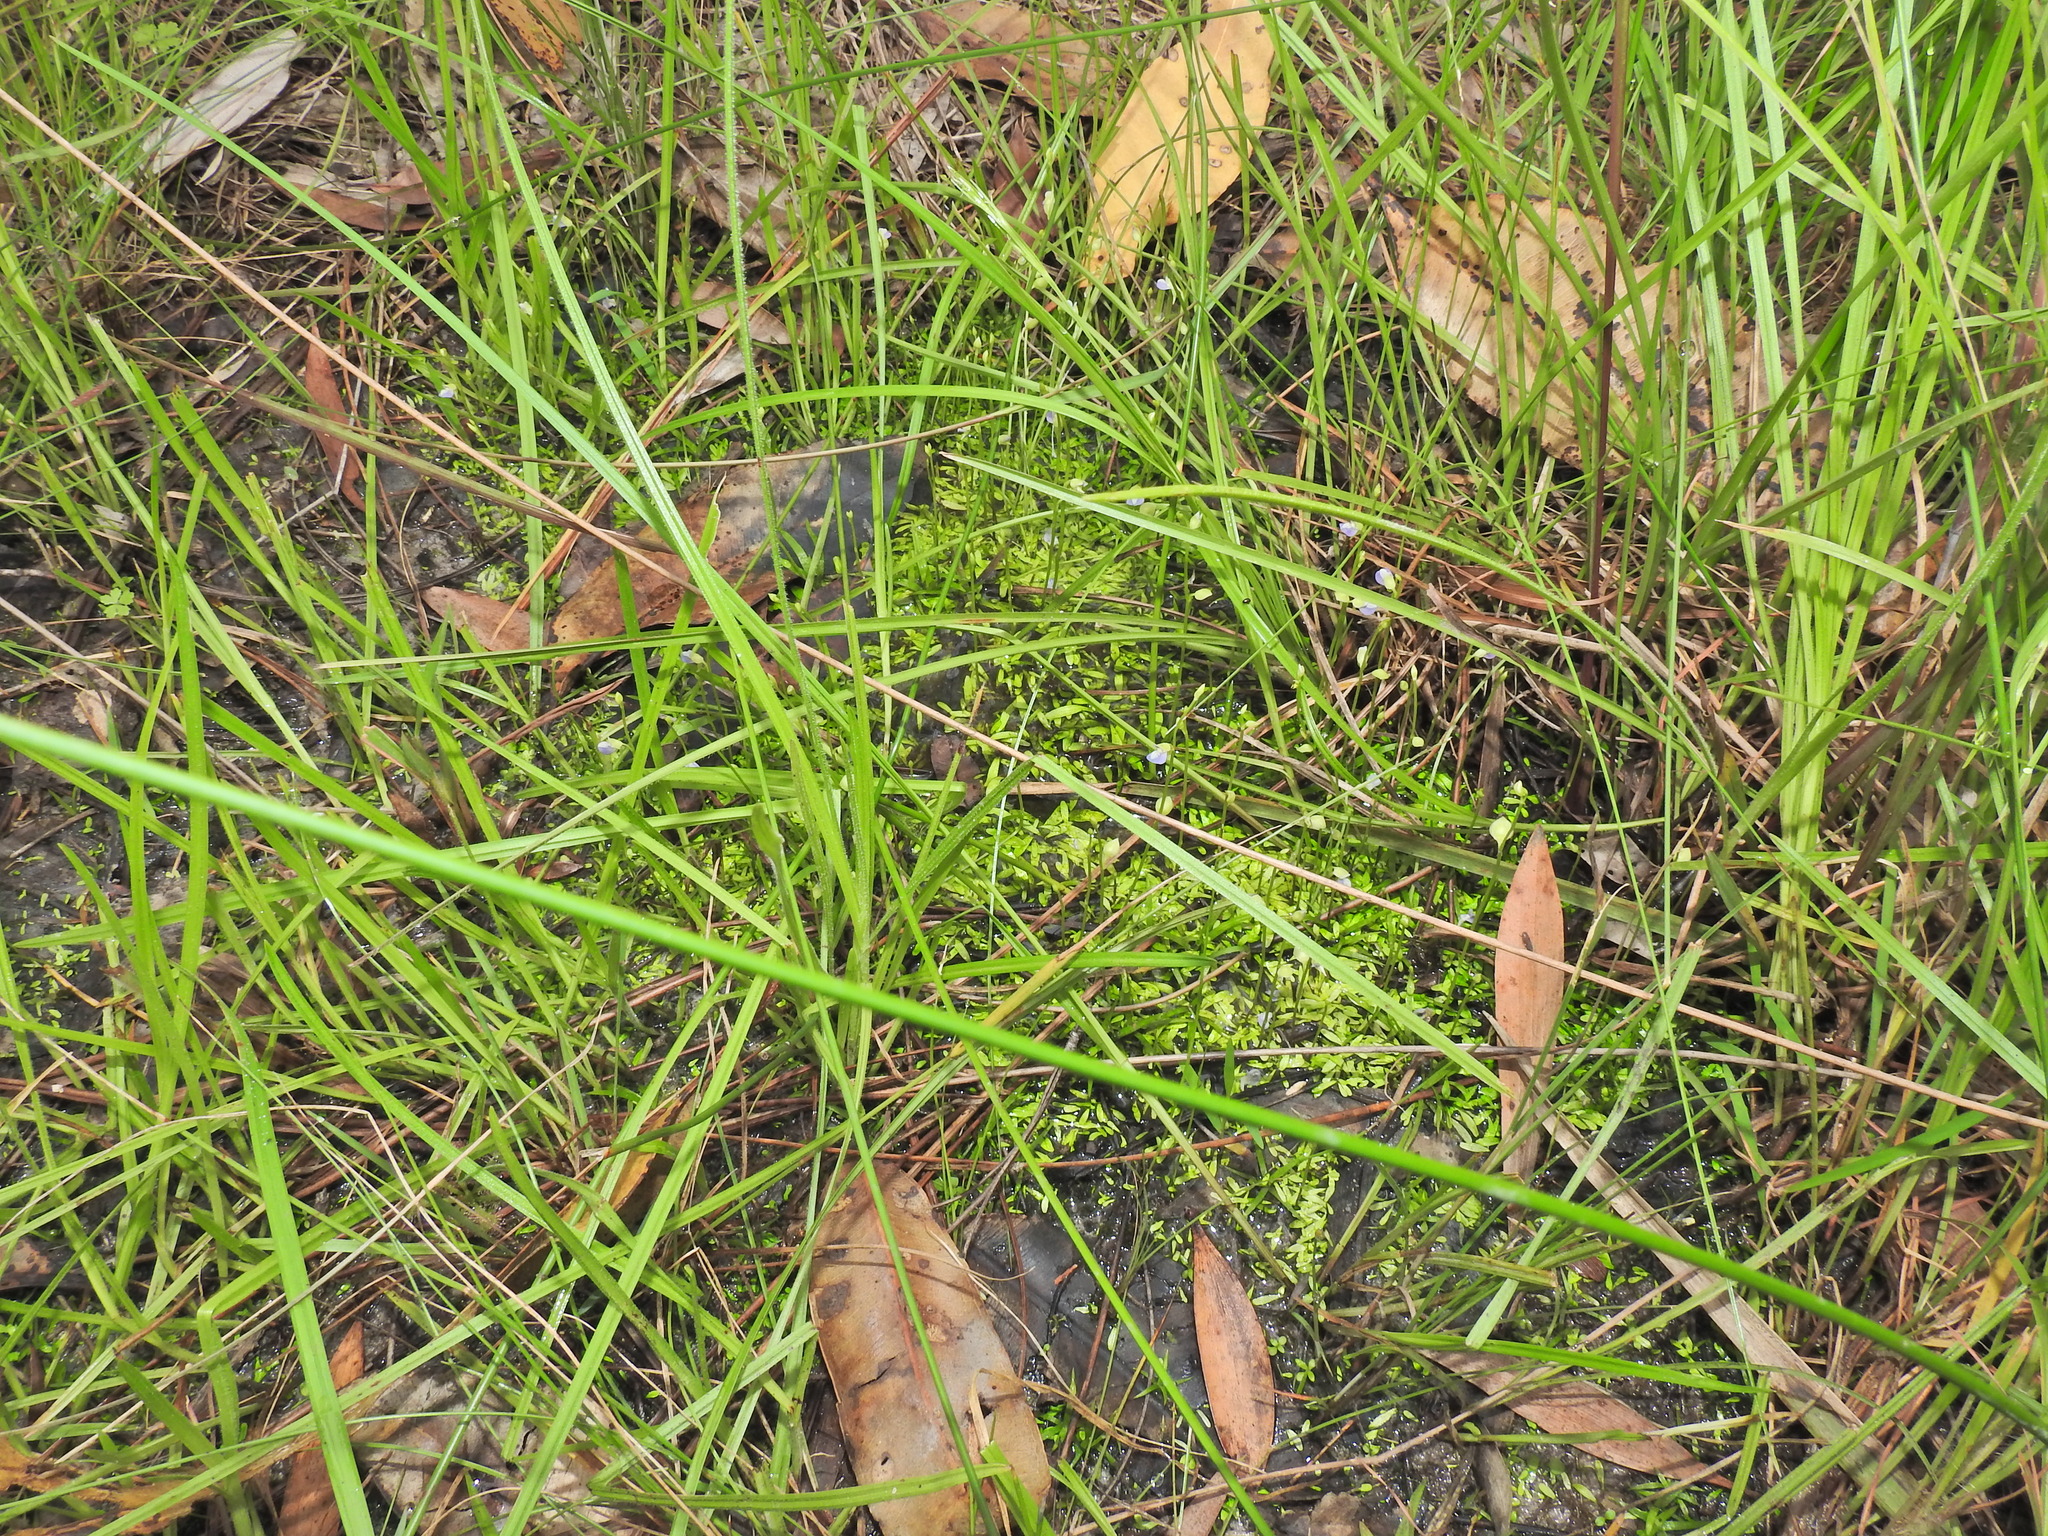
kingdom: Plantae
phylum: Tracheophyta
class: Magnoliopsida
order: Lamiales
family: Lentibulariaceae
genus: Utricularia
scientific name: Utricularia uliginosa
